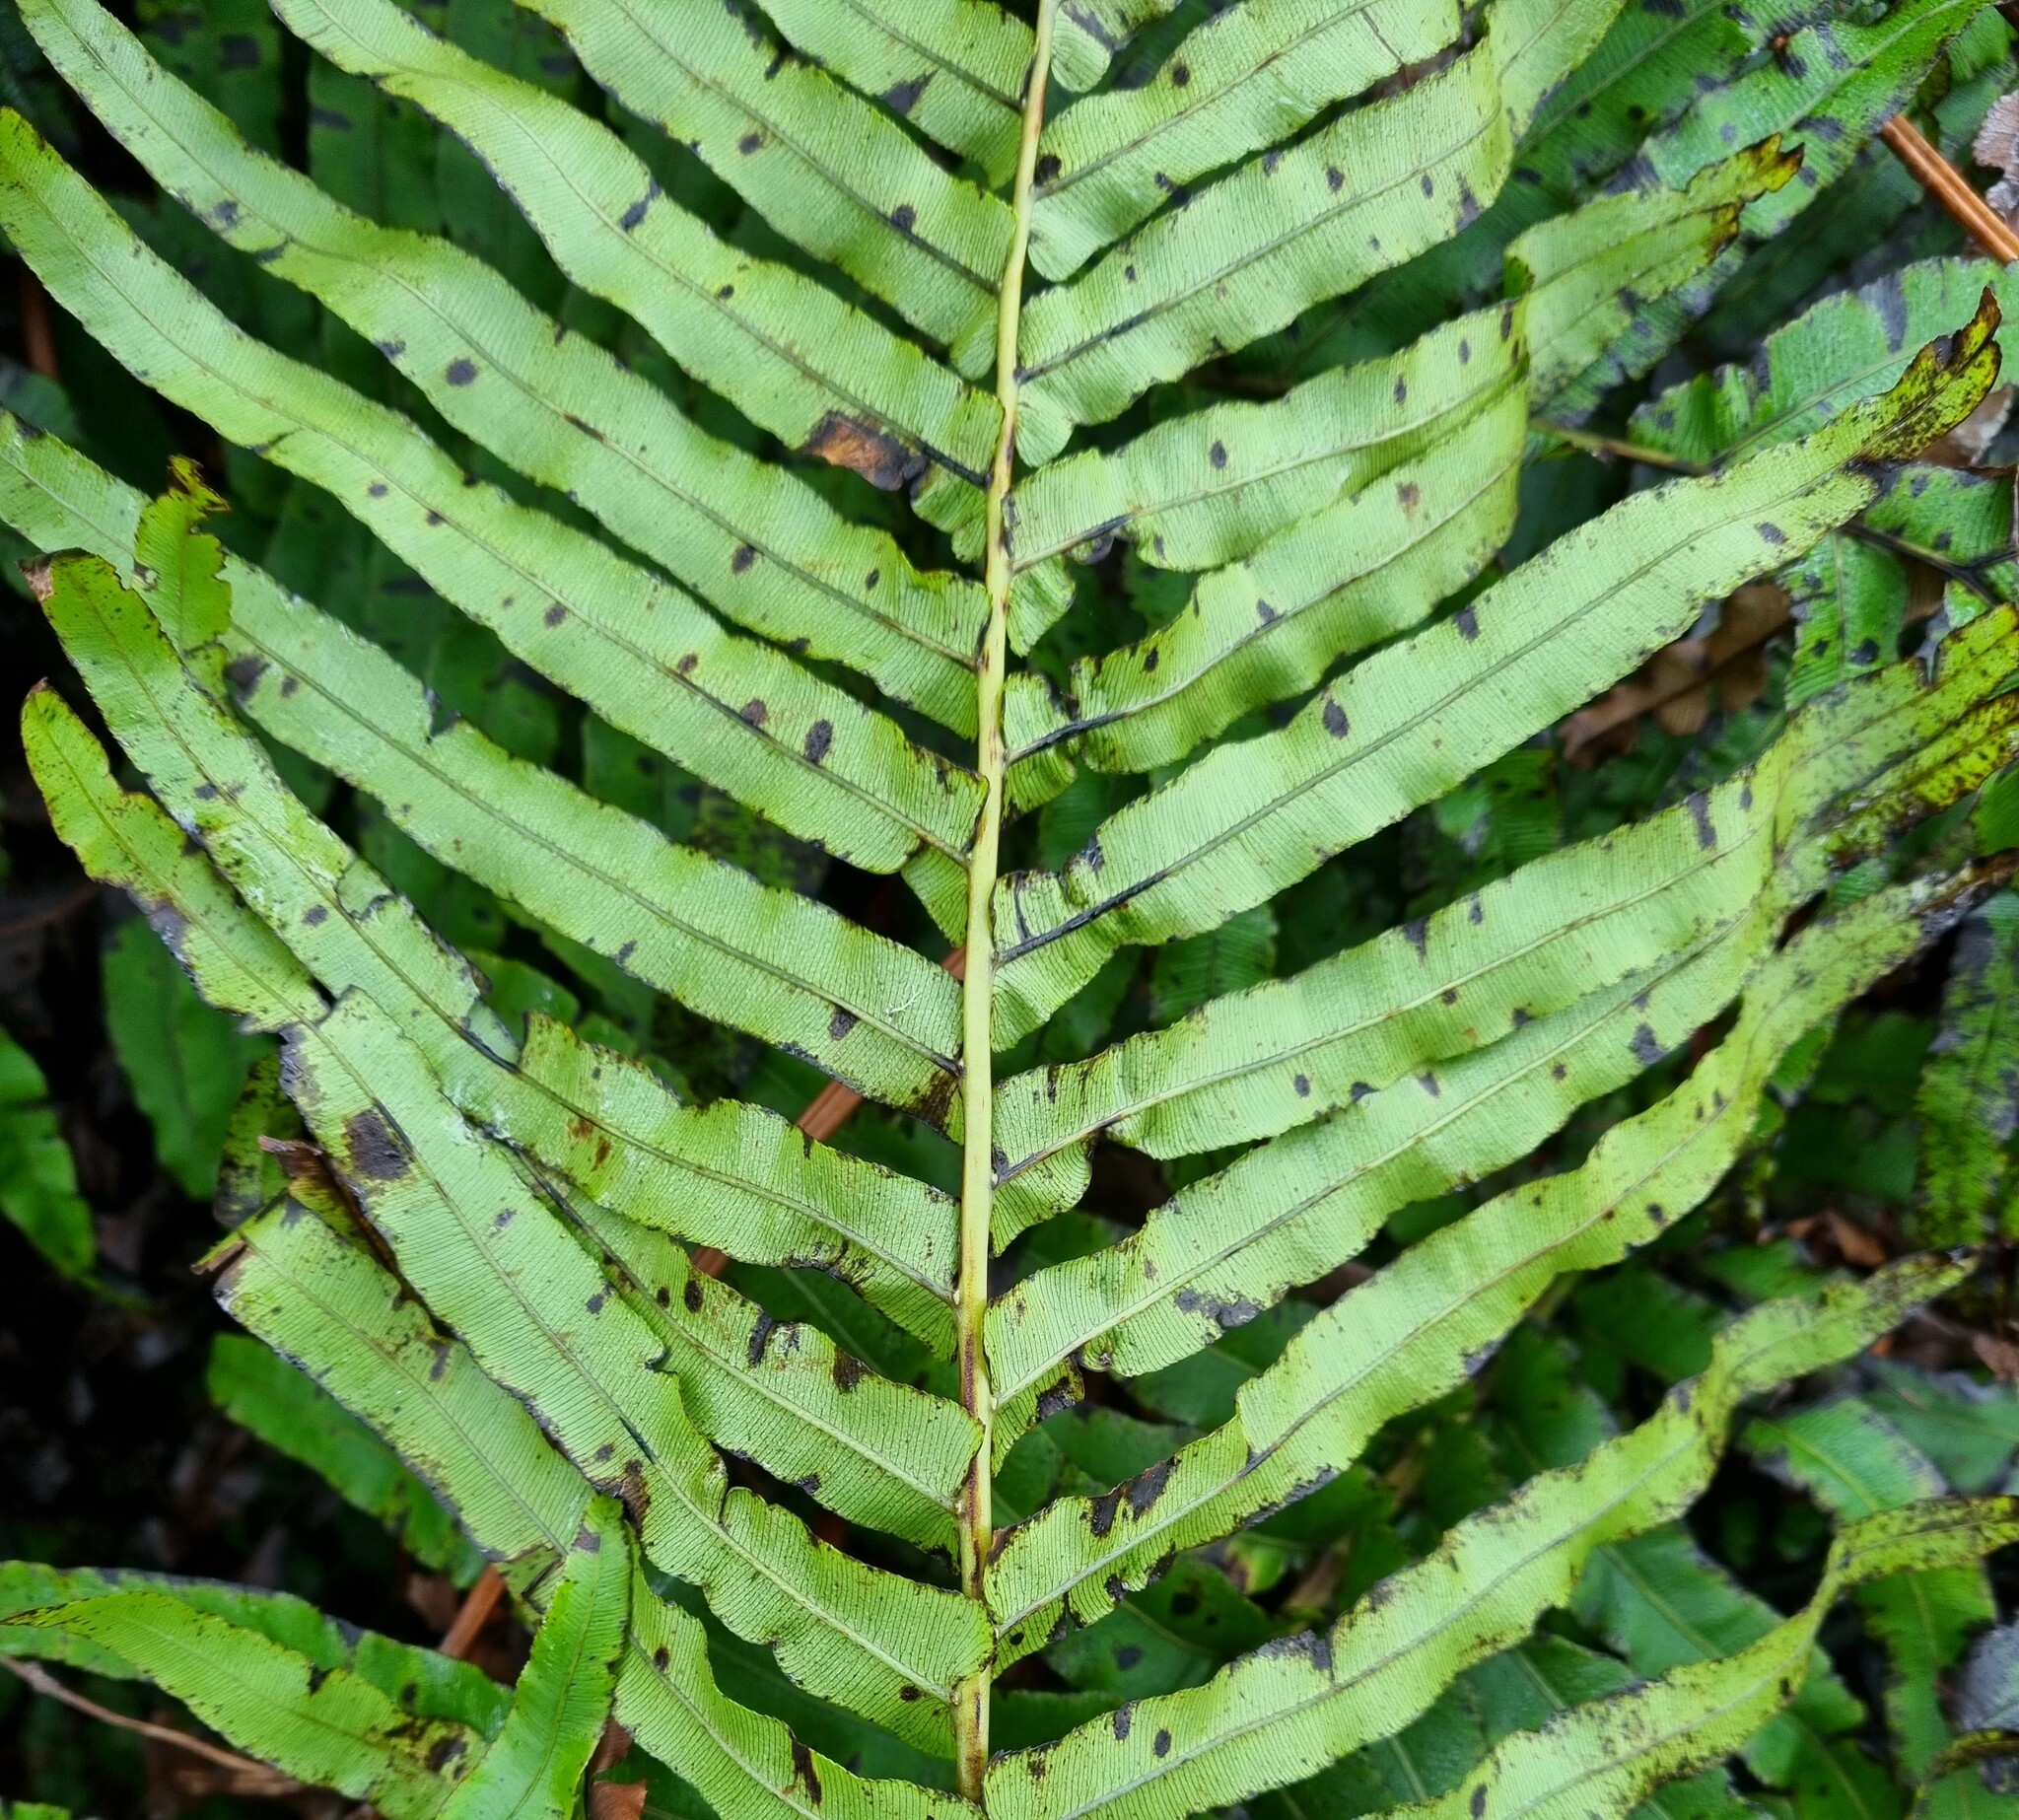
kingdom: Plantae
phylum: Tracheophyta
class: Polypodiopsida
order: Polypodiales
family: Blechnaceae
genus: Parablechnum
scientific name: Parablechnum novae-zelandiae
